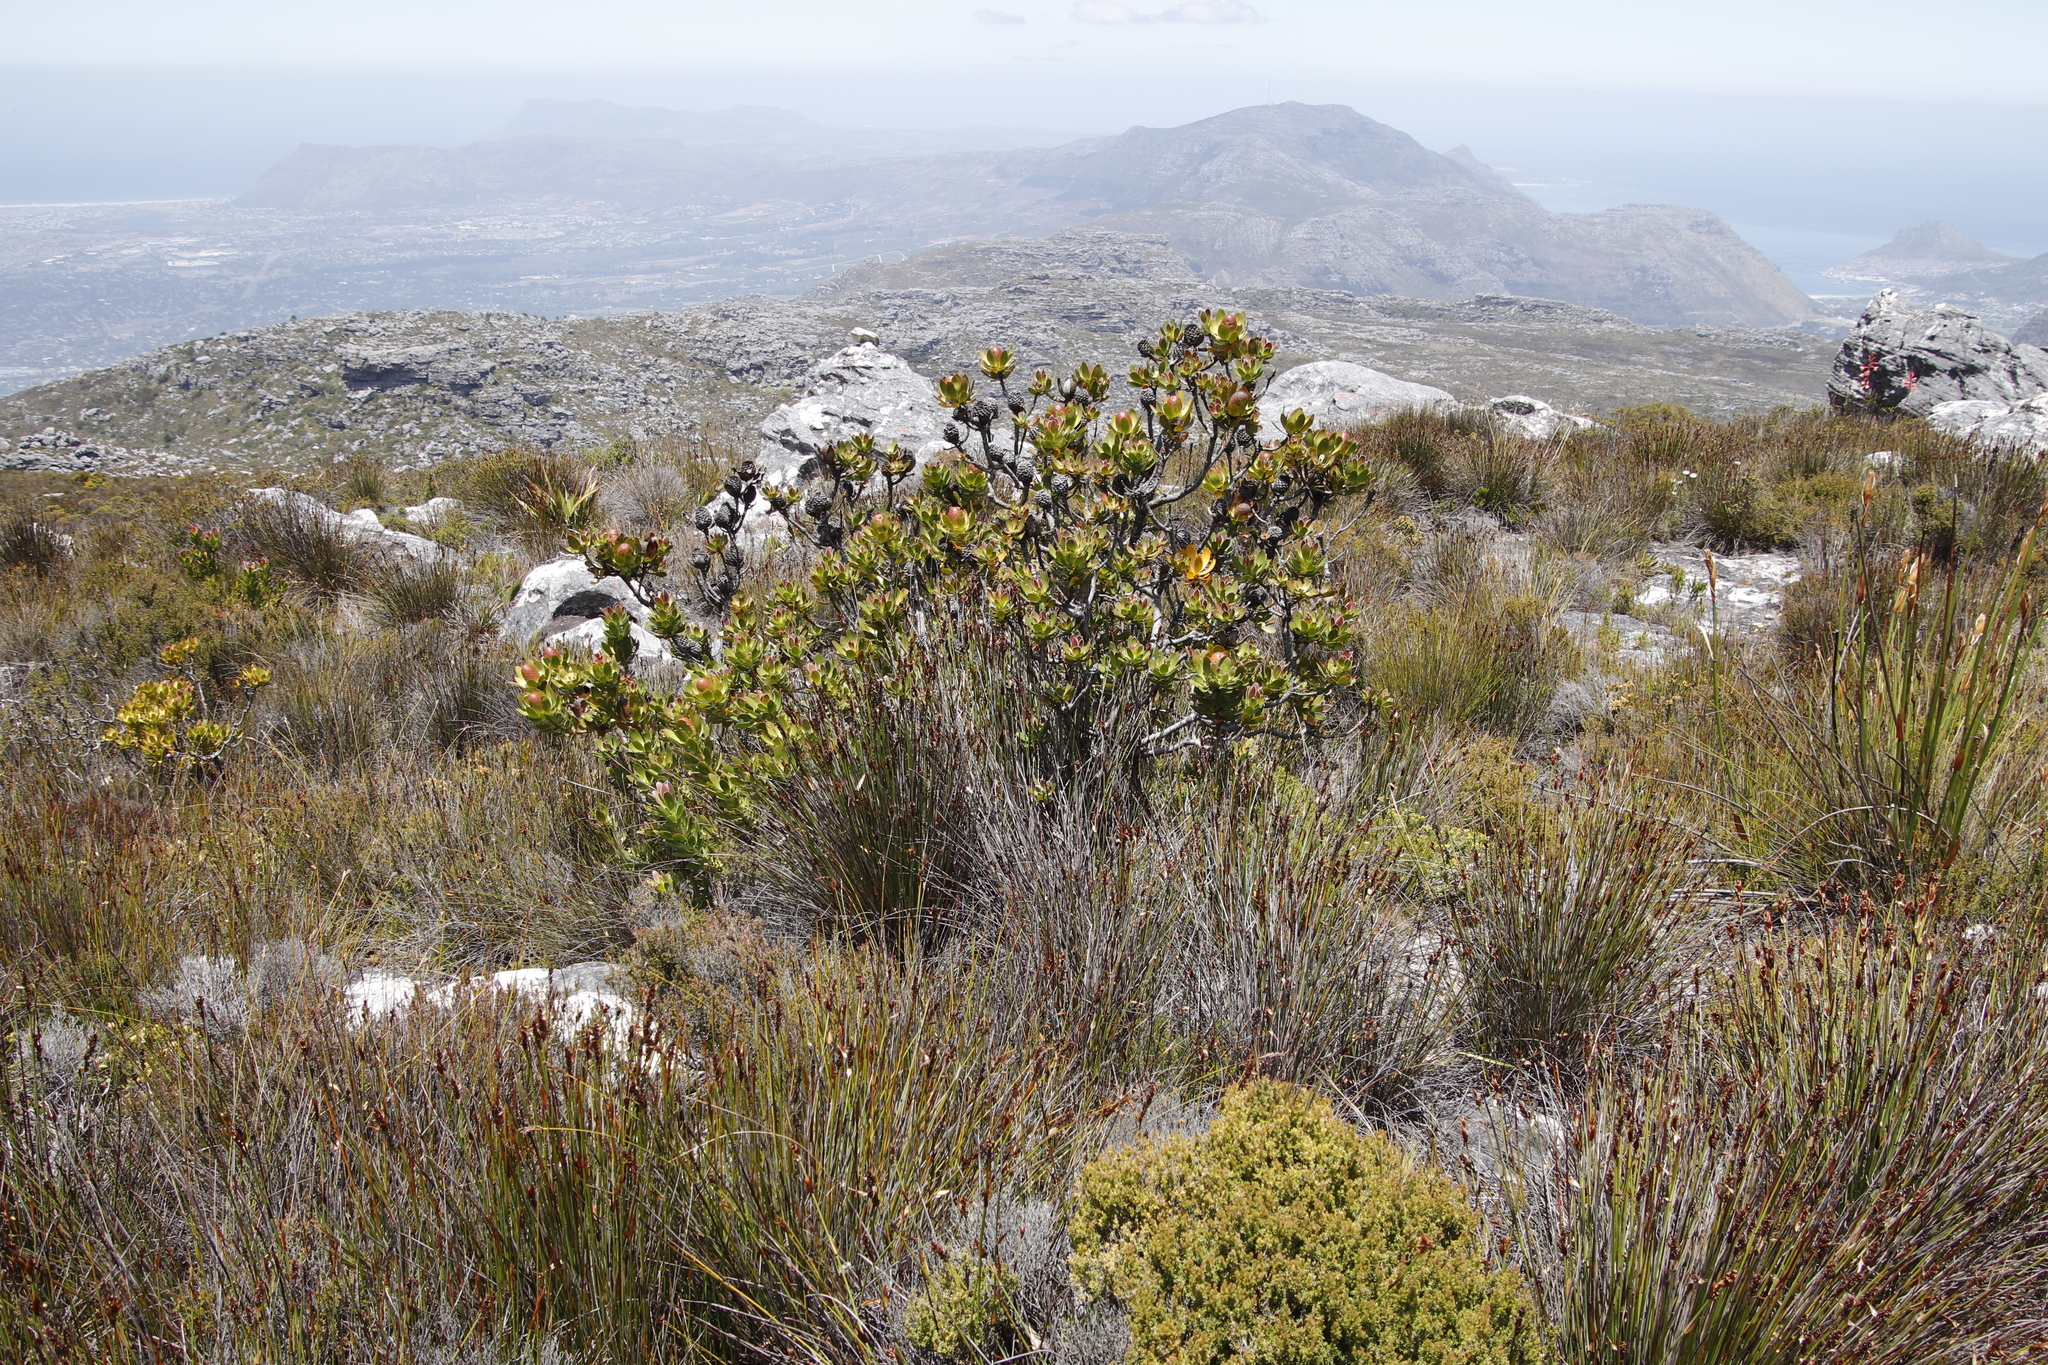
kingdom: Plantae
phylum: Tracheophyta
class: Magnoliopsida
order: Proteales
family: Proteaceae
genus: Leucadendron
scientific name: Leucadendron strobilinum
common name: Mountain rose
